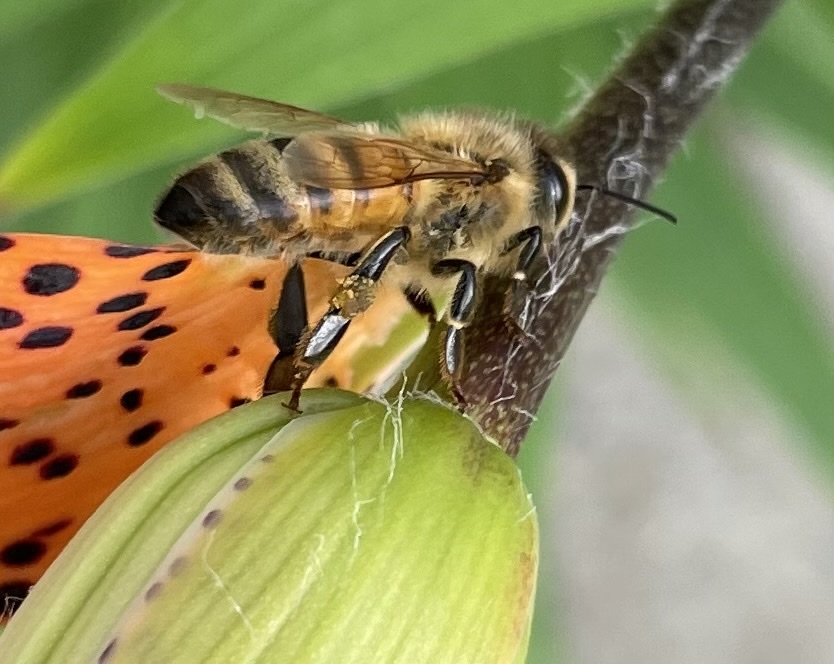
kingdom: Animalia
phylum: Arthropoda
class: Insecta
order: Hymenoptera
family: Apidae
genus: Apis
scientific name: Apis mellifera
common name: Honey bee
